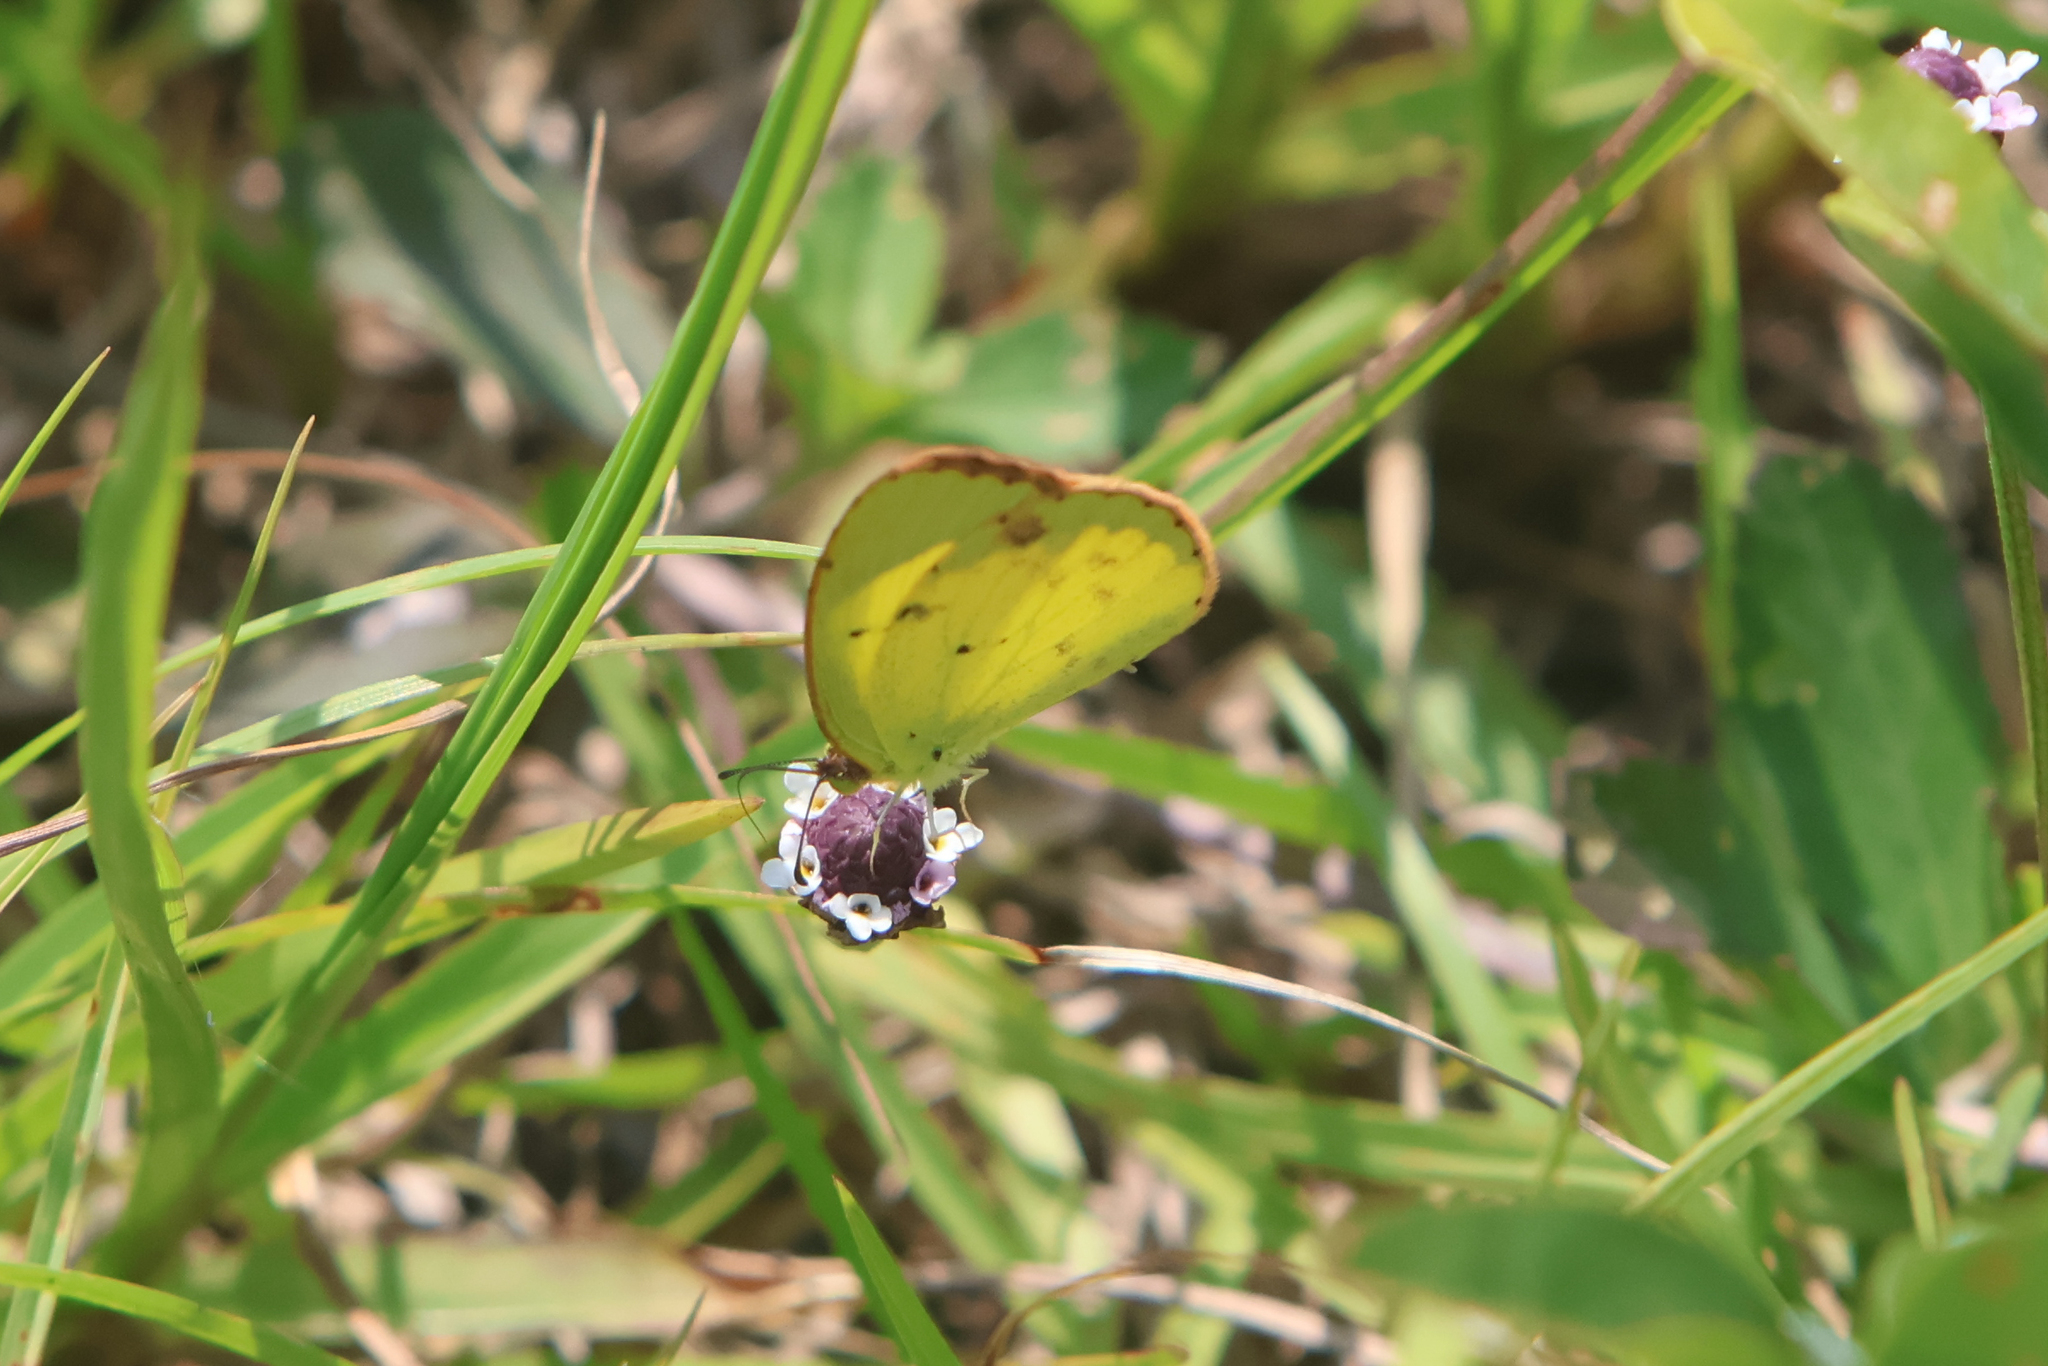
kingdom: Animalia
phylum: Arthropoda
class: Insecta
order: Lepidoptera
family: Pieridae
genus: Pyrisitia
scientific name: Pyrisitia lisa
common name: Little yellow
